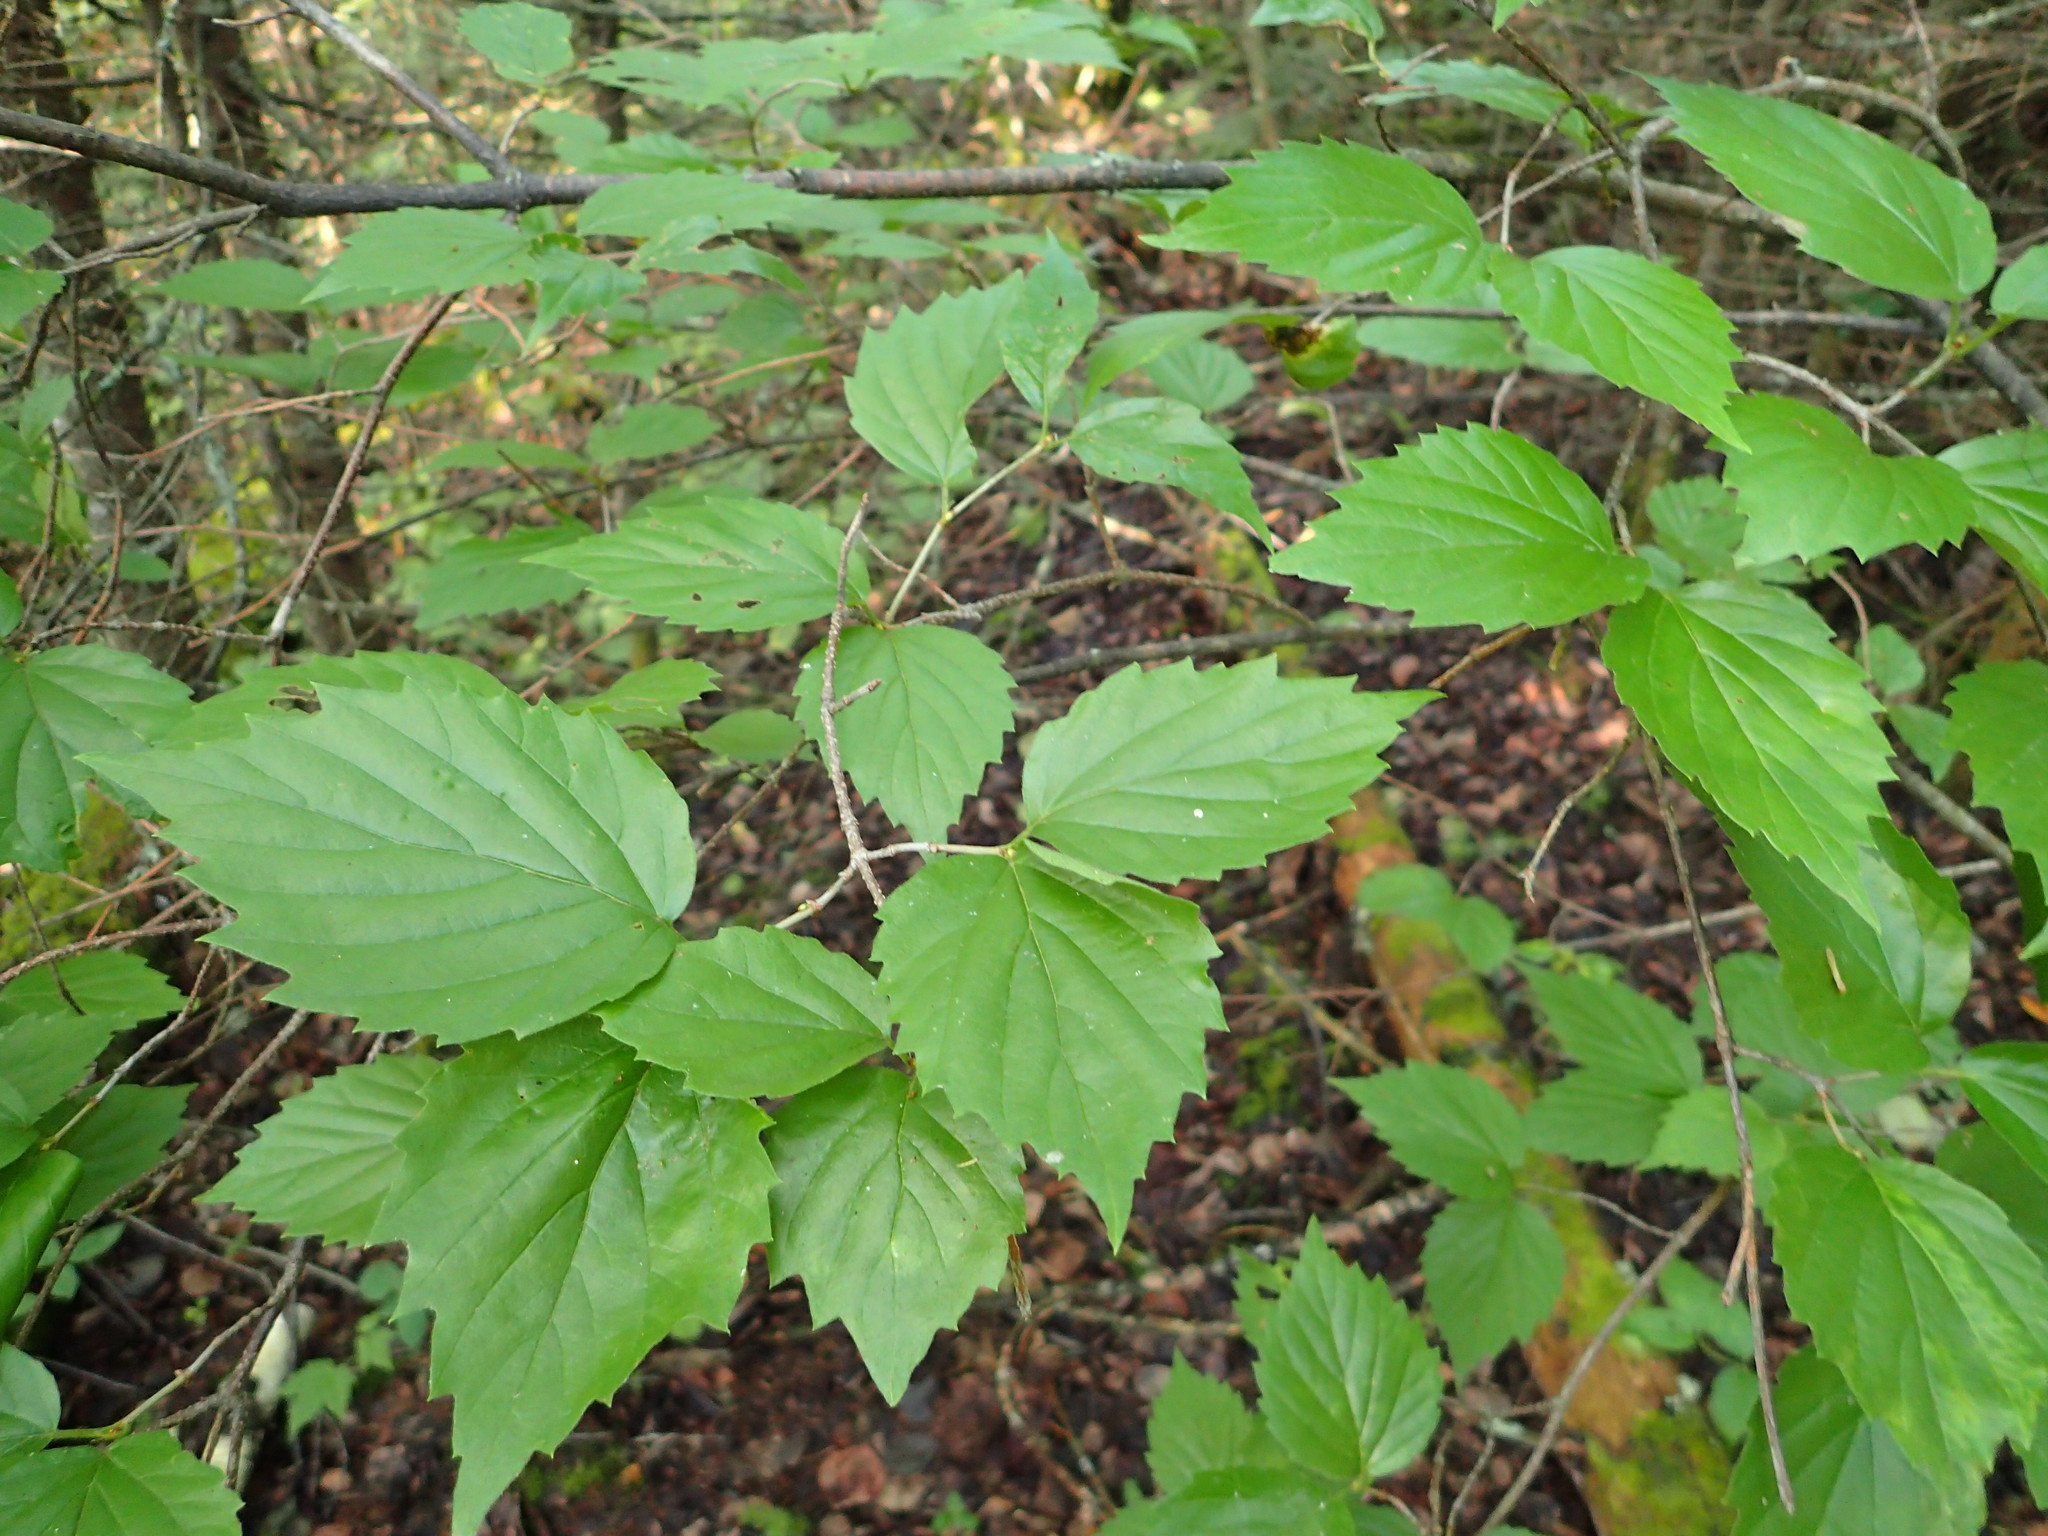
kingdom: Plantae
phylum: Tracheophyta
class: Magnoliopsida
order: Dipsacales
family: Viburnaceae
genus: Viburnum
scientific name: Viburnum rafinesqueanum
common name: Downy arrow-wood
